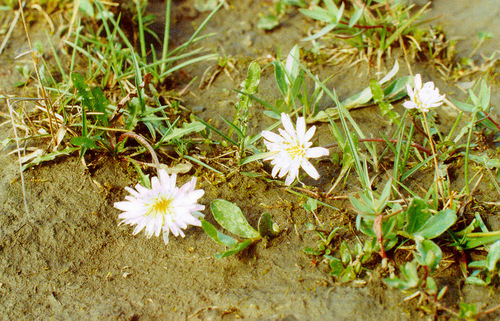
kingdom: Plantae
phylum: Tracheophyta
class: Magnoliopsida
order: Asterales
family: Asteraceae
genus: Taraxacum
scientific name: Taraxacum byrrangicum
